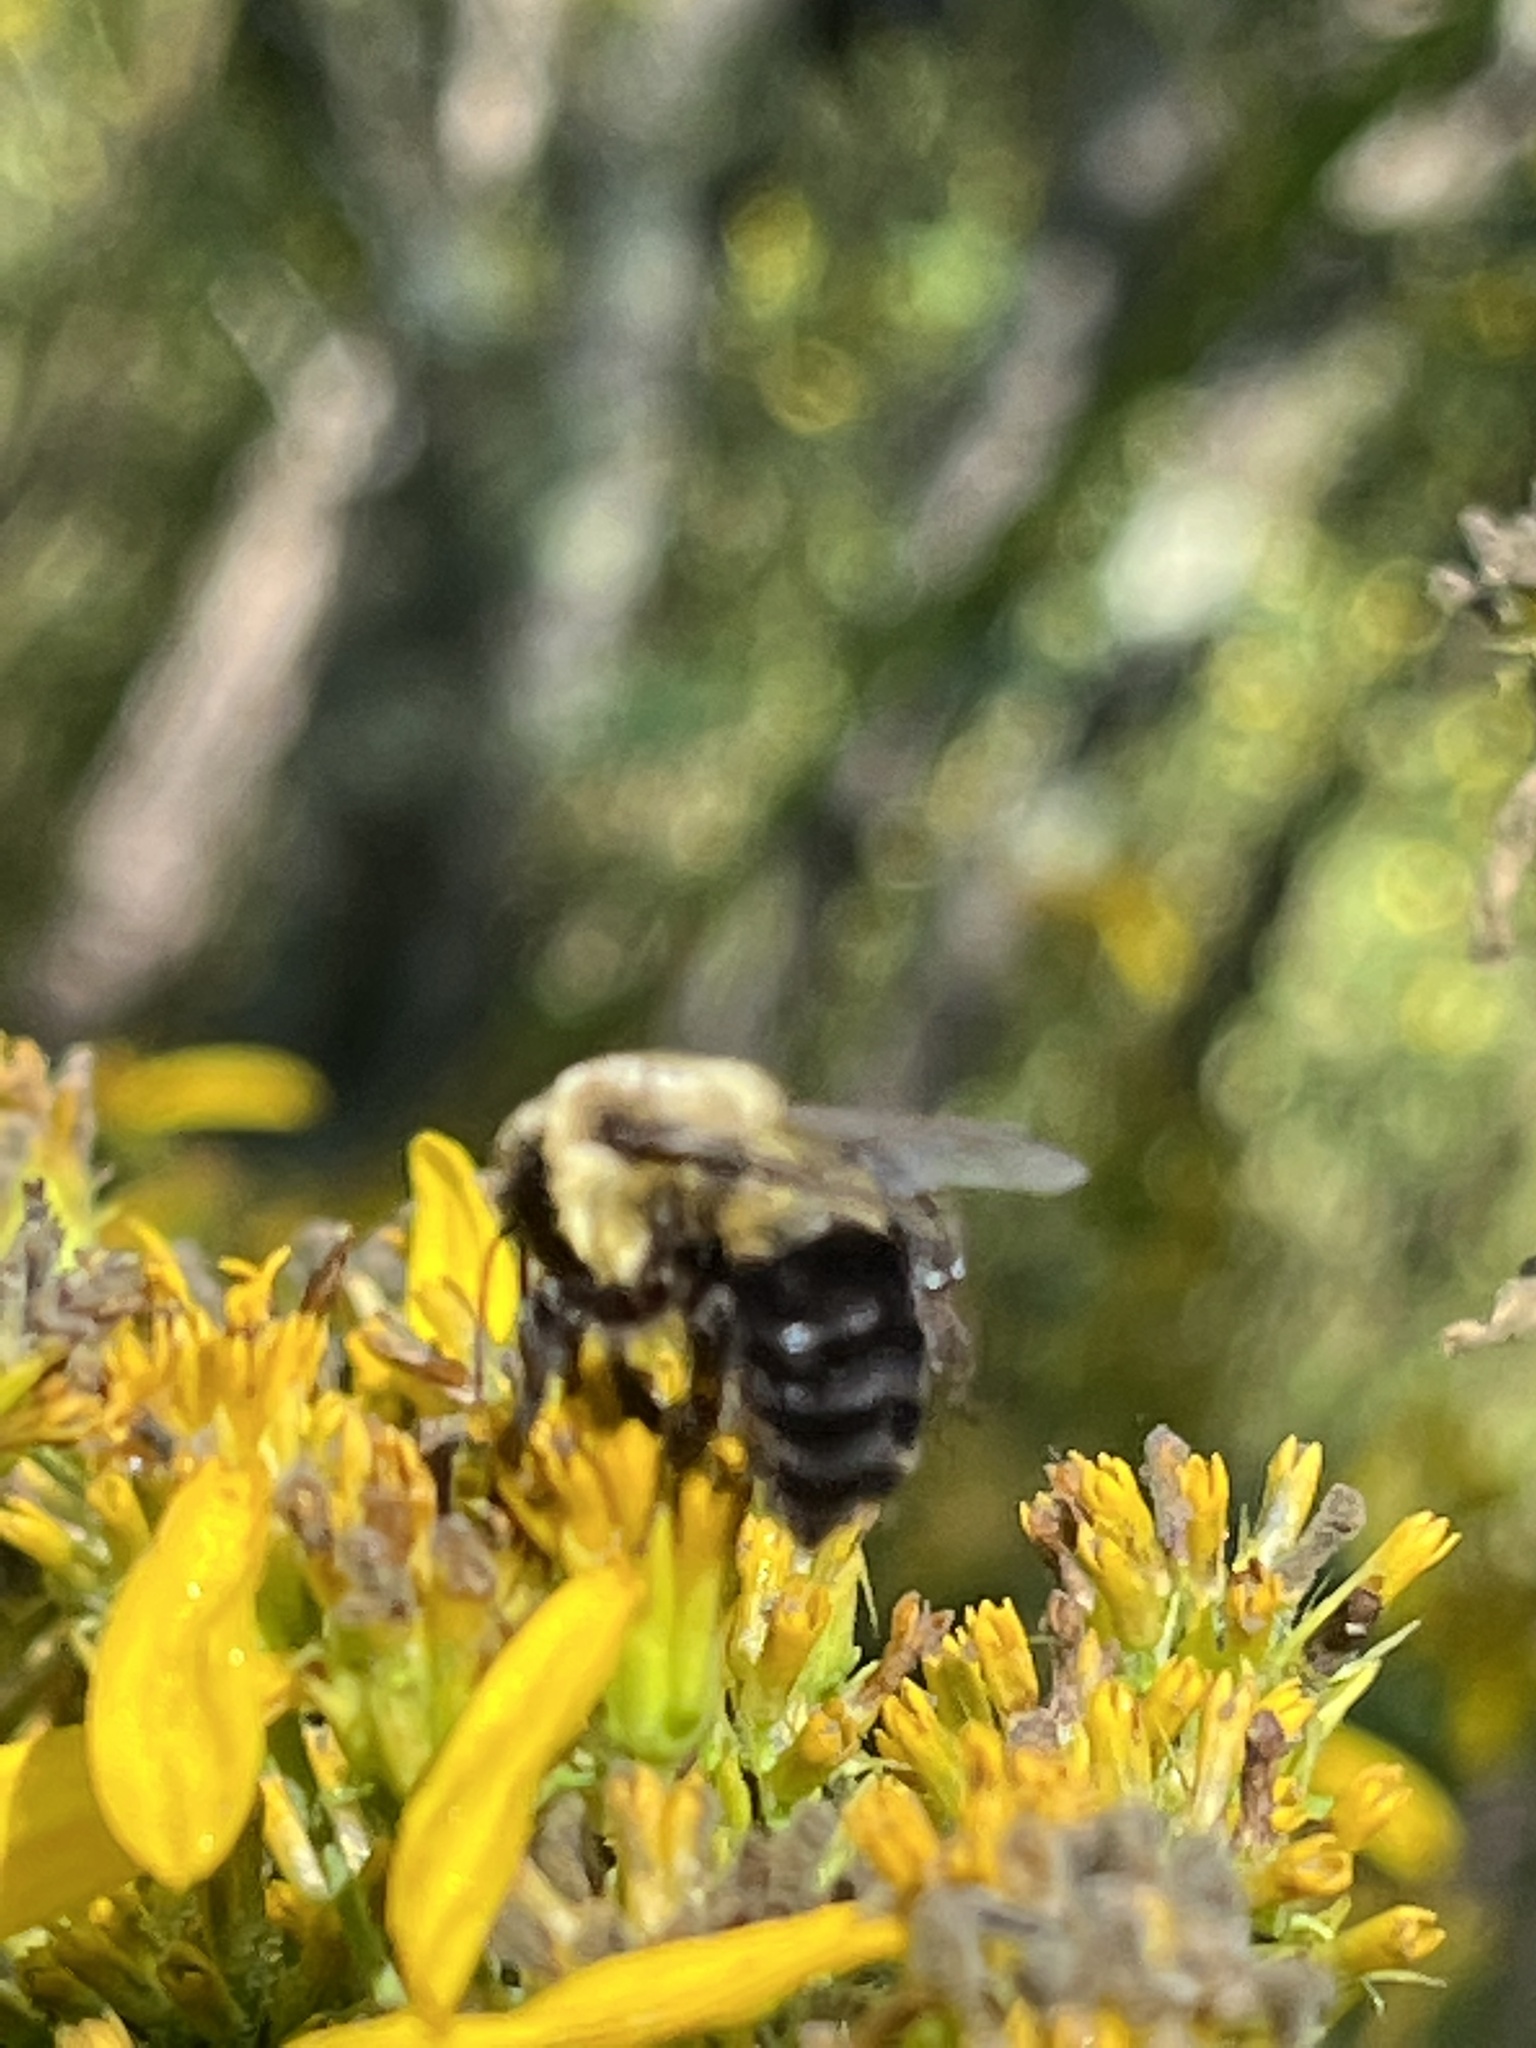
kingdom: Animalia
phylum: Arthropoda
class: Insecta
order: Hymenoptera
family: Apidae
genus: Bombus
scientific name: Bombus impatiens
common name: Common eastern bumble bee
